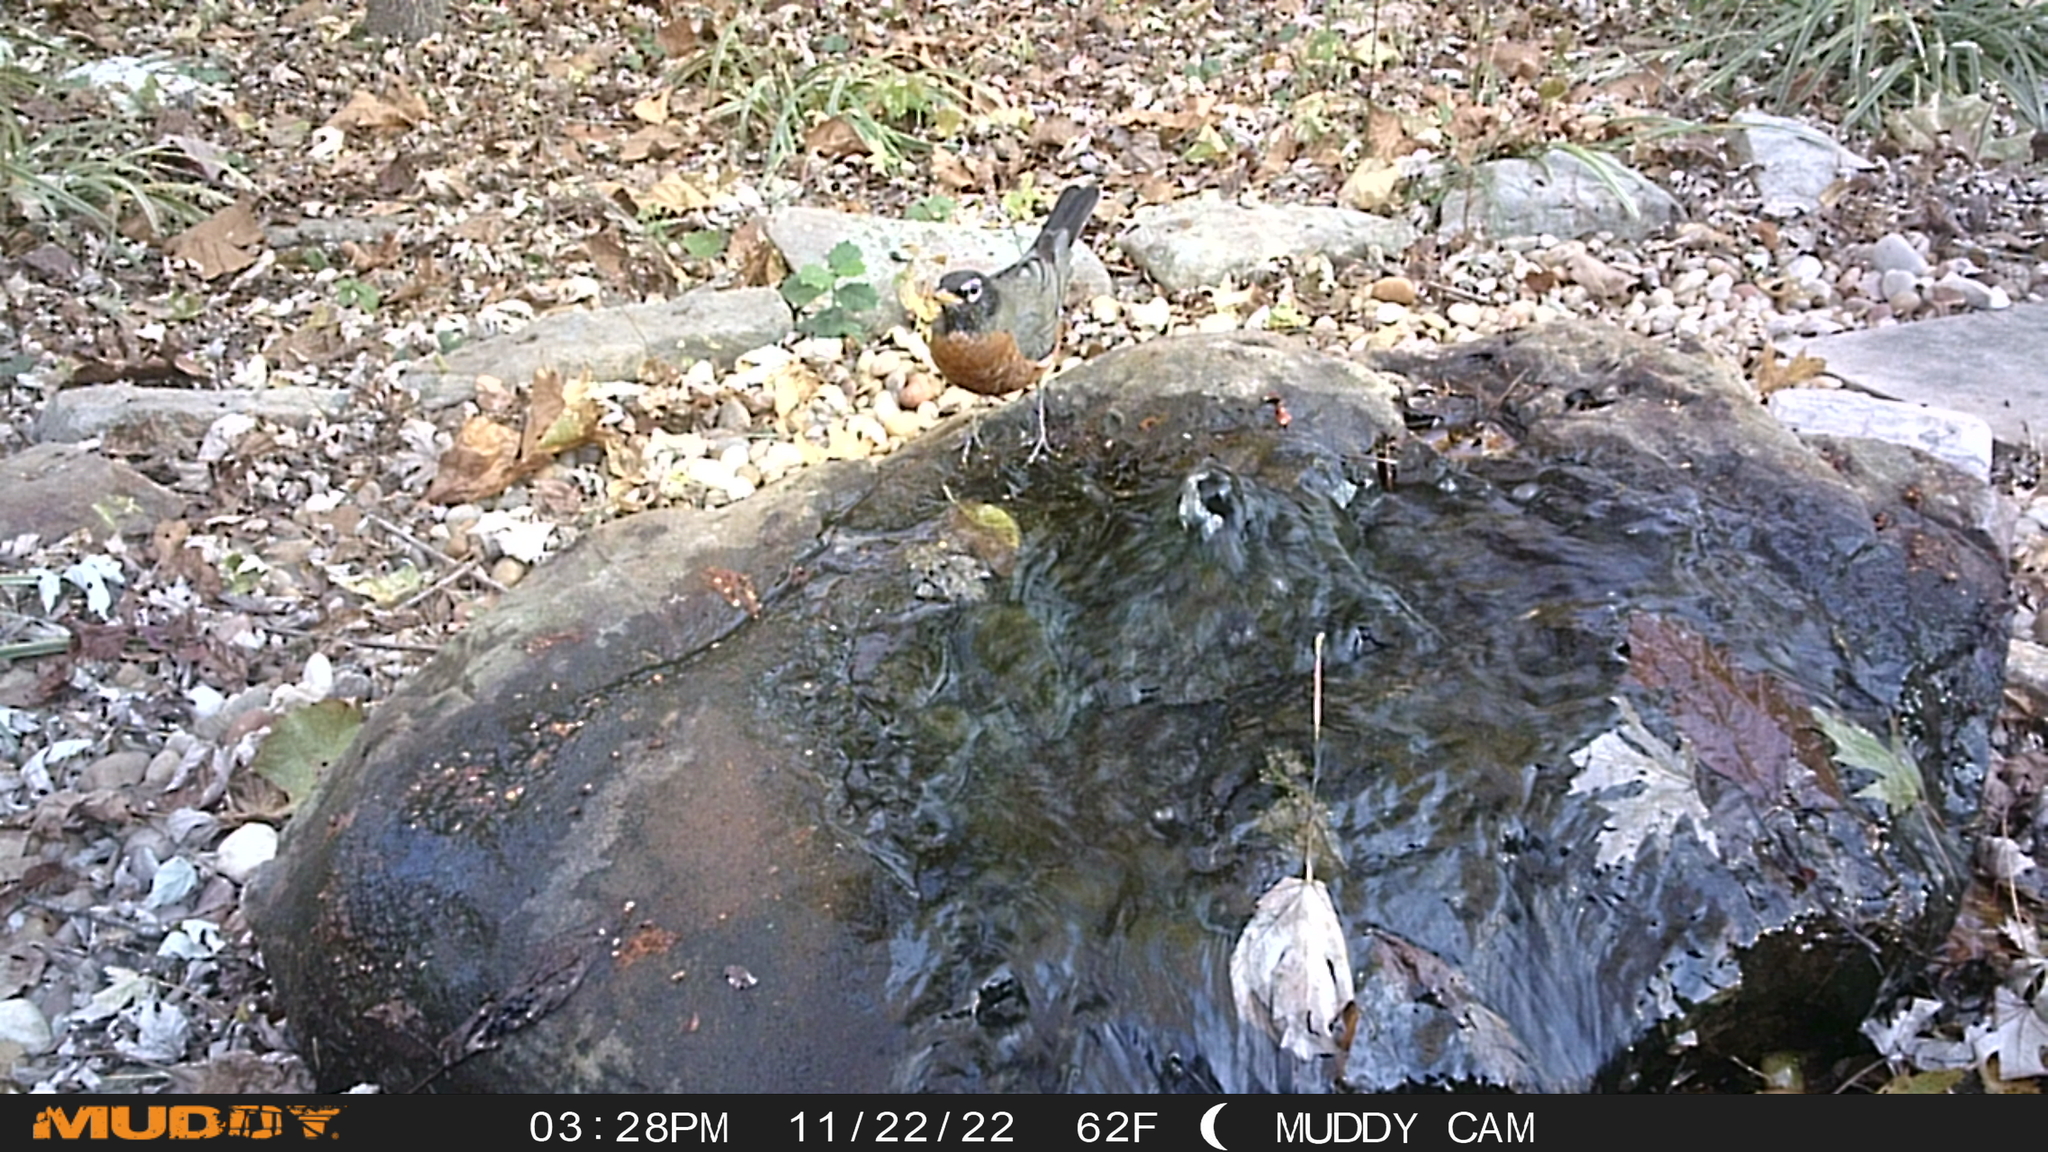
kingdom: Animalia
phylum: Chordata
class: Aves
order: Passeriformes
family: Turdidae
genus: Turdus
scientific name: Turdus migratorius
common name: American robin
